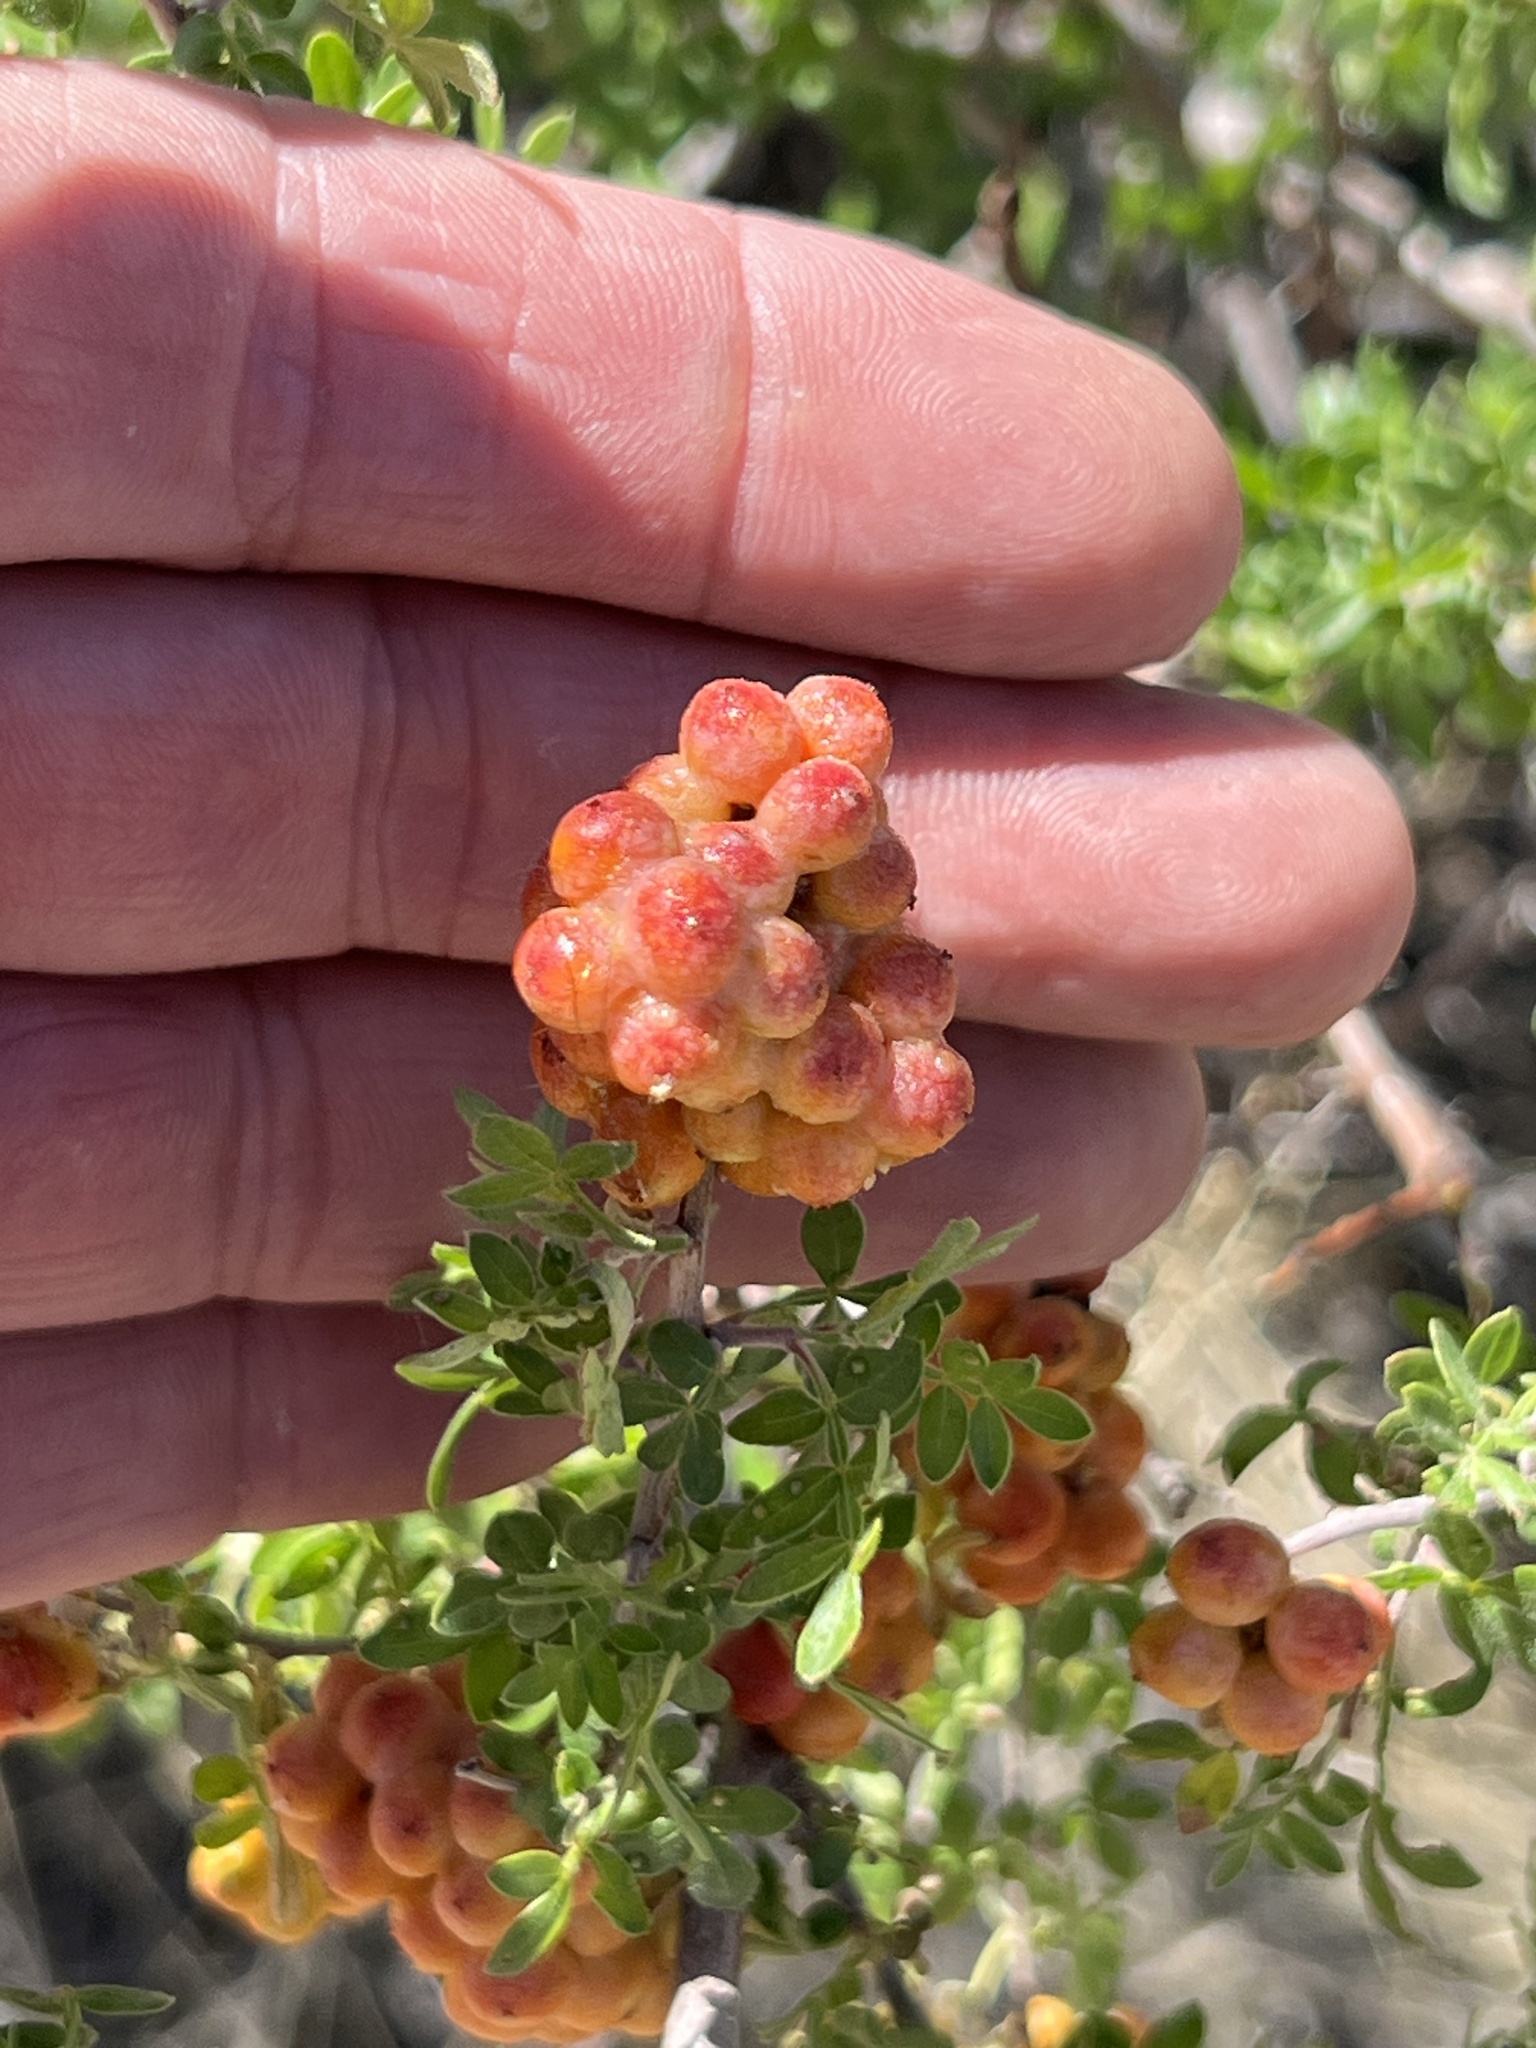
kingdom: Plantae
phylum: Tracheophyta
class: Magnoliopsida
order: Sapindales
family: Anacardiaceae
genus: Rhus
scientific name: Rhus microphylla
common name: Desert sumac
